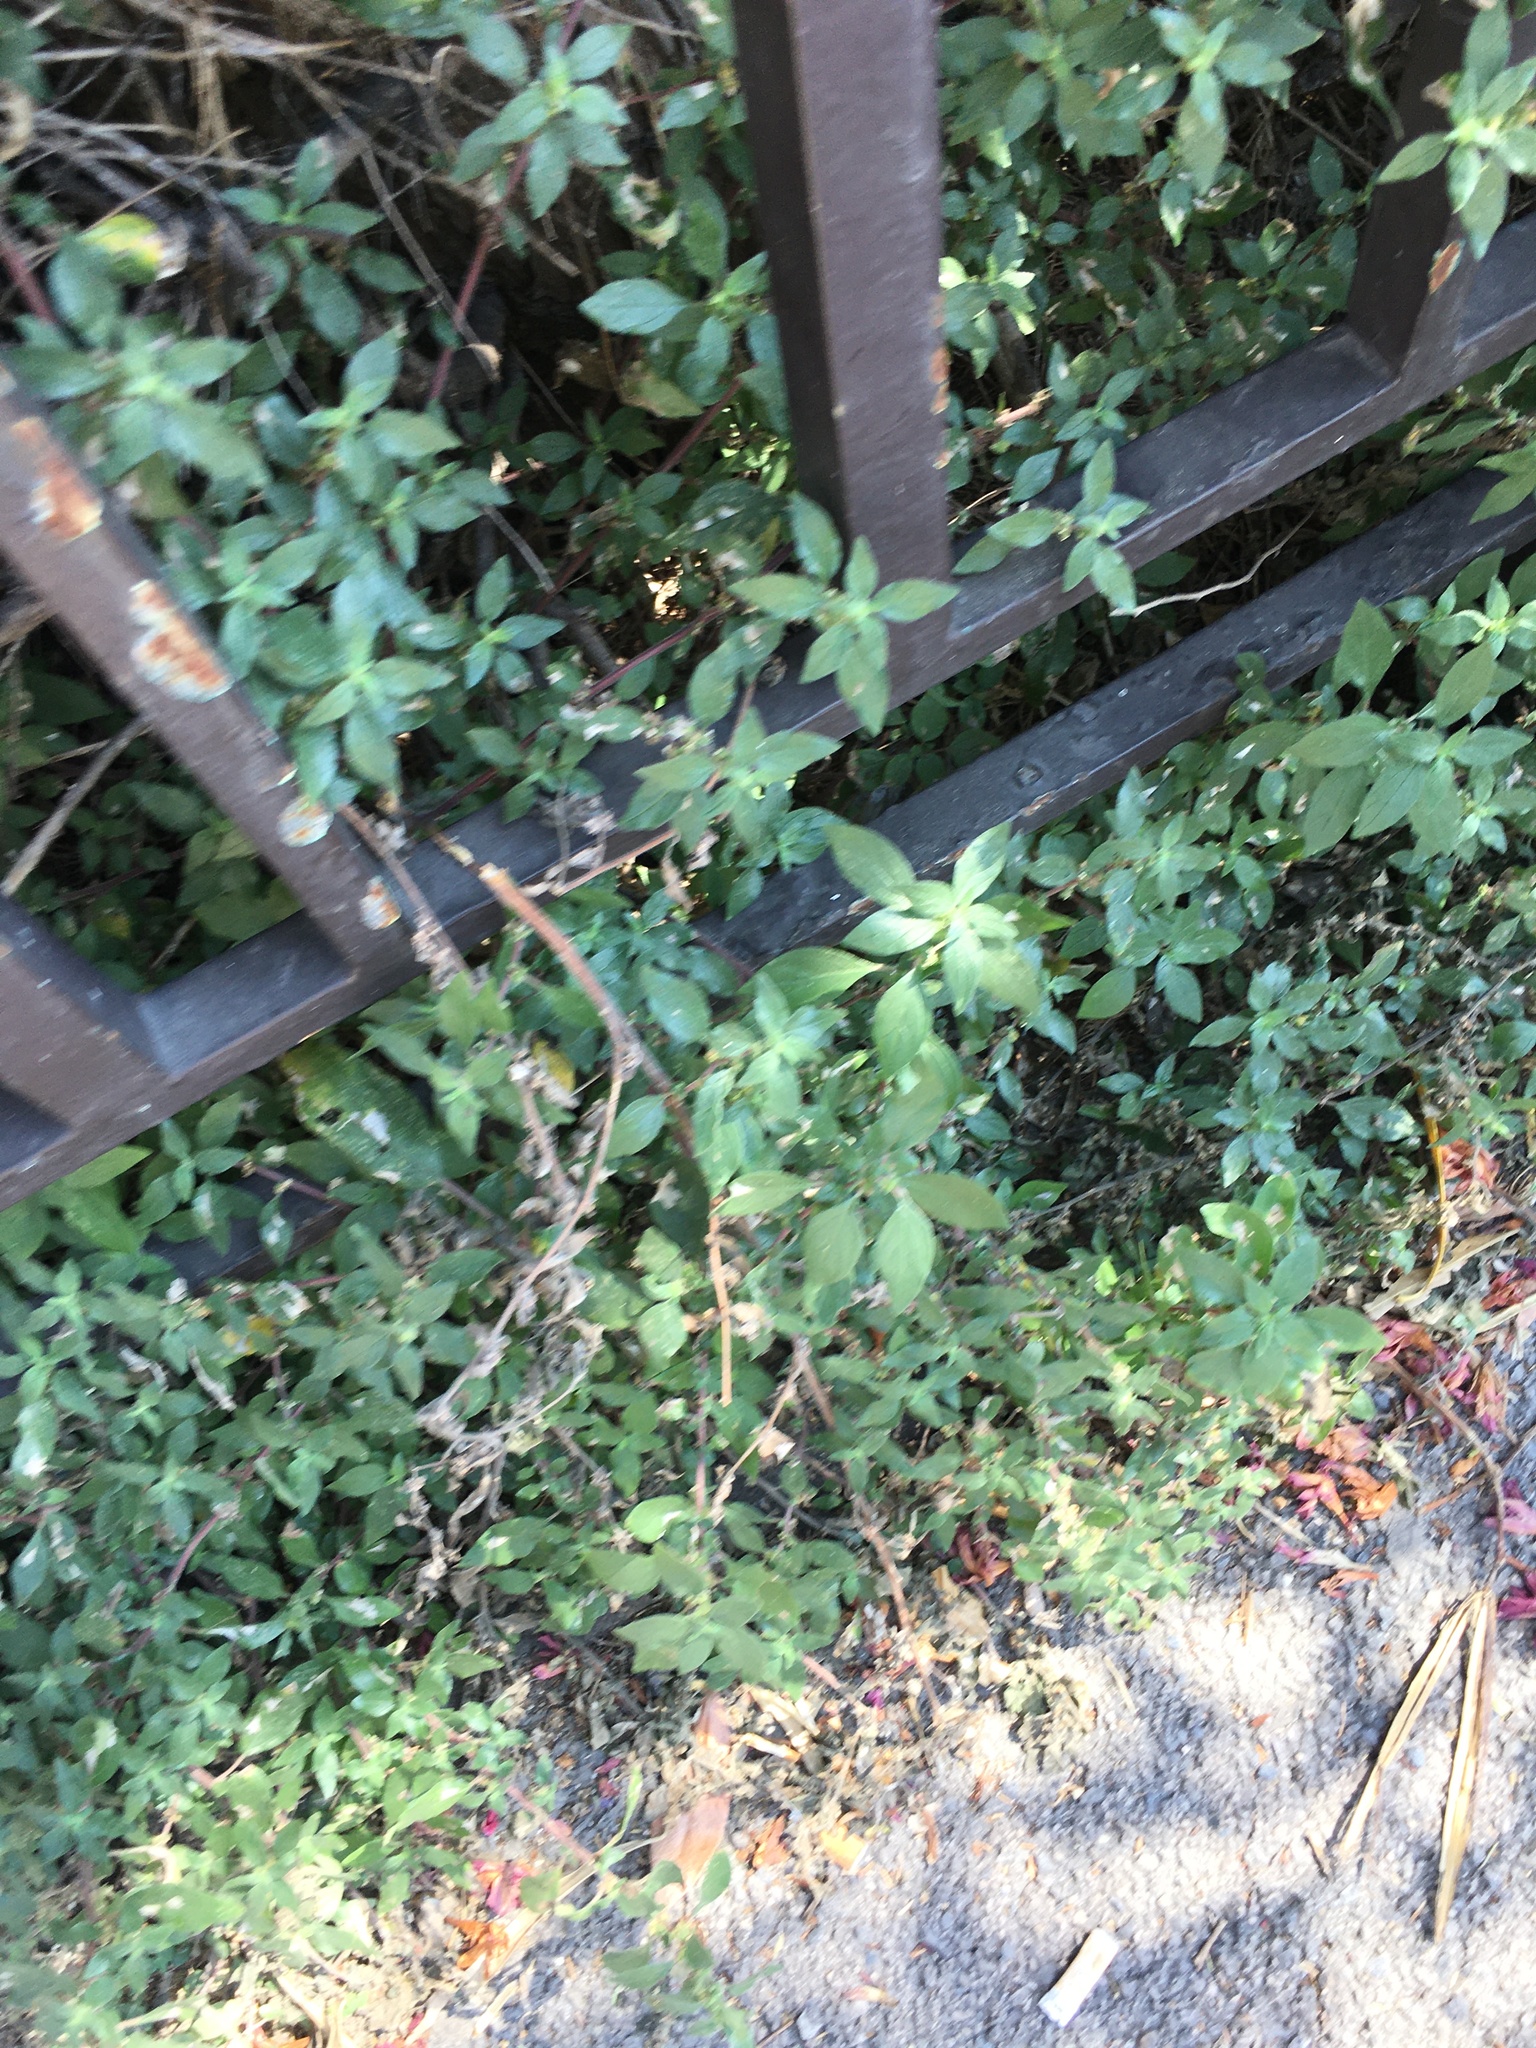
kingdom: Plantae
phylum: Tracheophyta
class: Magnoliopsida
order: Rosales
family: Urticaceae
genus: Parietaria
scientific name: Parietaria judaica
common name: Pellitory-of-the-wall
